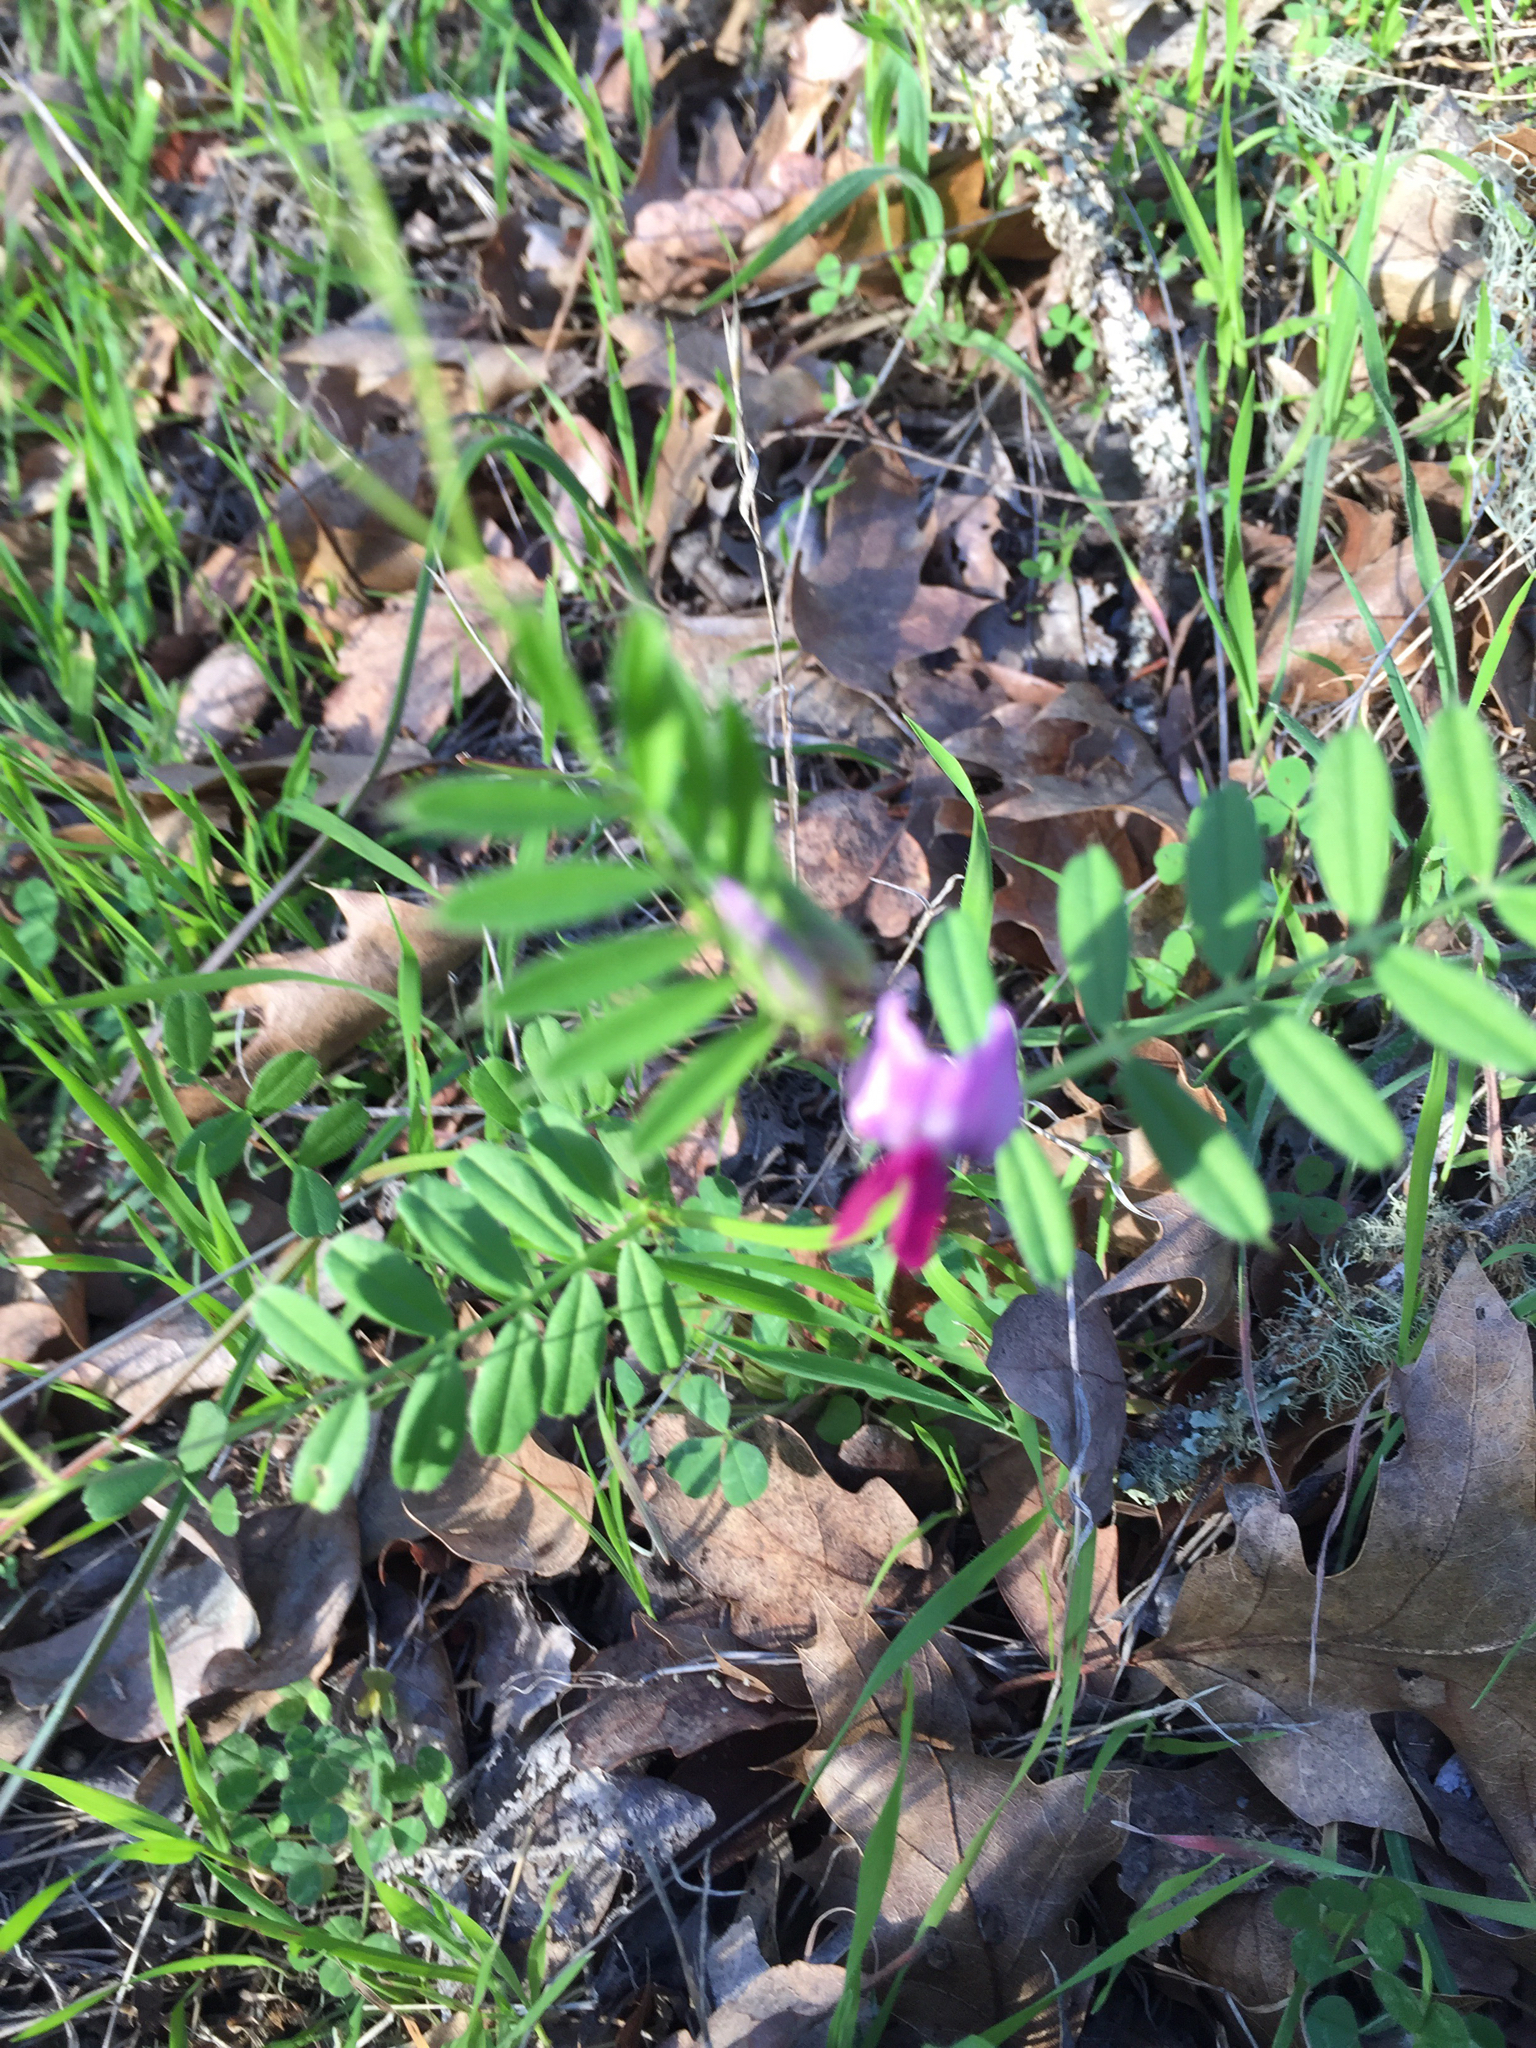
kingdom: Plantae
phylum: Tracheophyta
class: Magnoliopsida
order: Fabales
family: Fabaceae
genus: Vicia
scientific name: Vicia sativa
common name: Garden vetch
